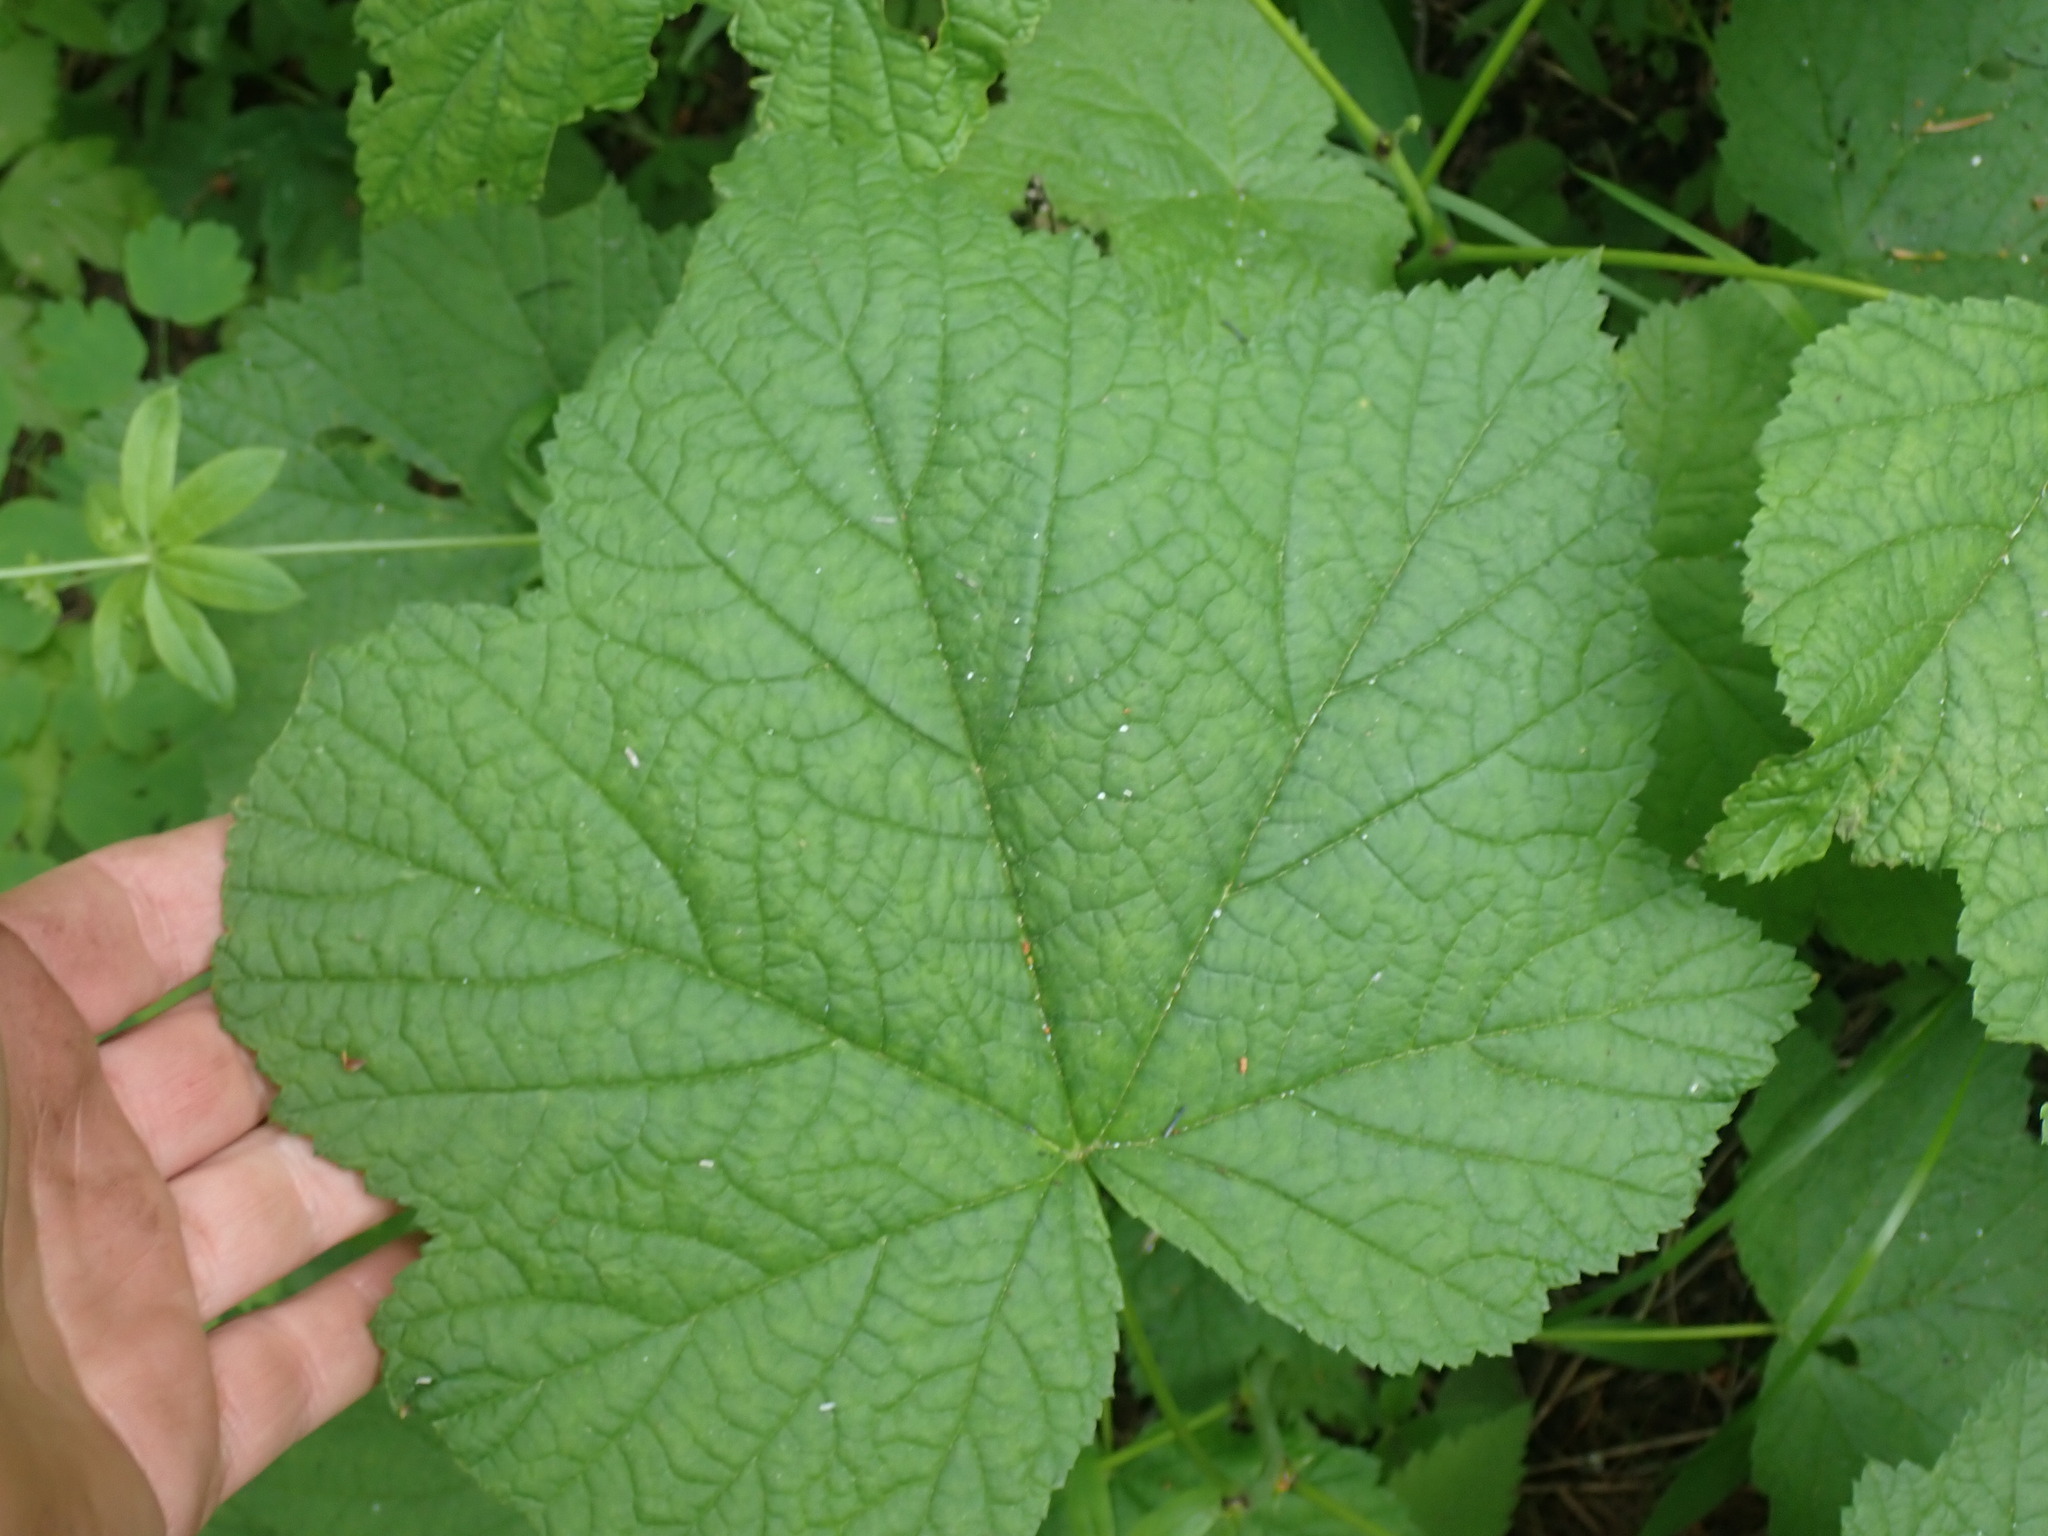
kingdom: Plantae
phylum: Tracheophyta
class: Magnoliopsida
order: Rosales
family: Rosaceae
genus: Rubus
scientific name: Rubus parviflorus
